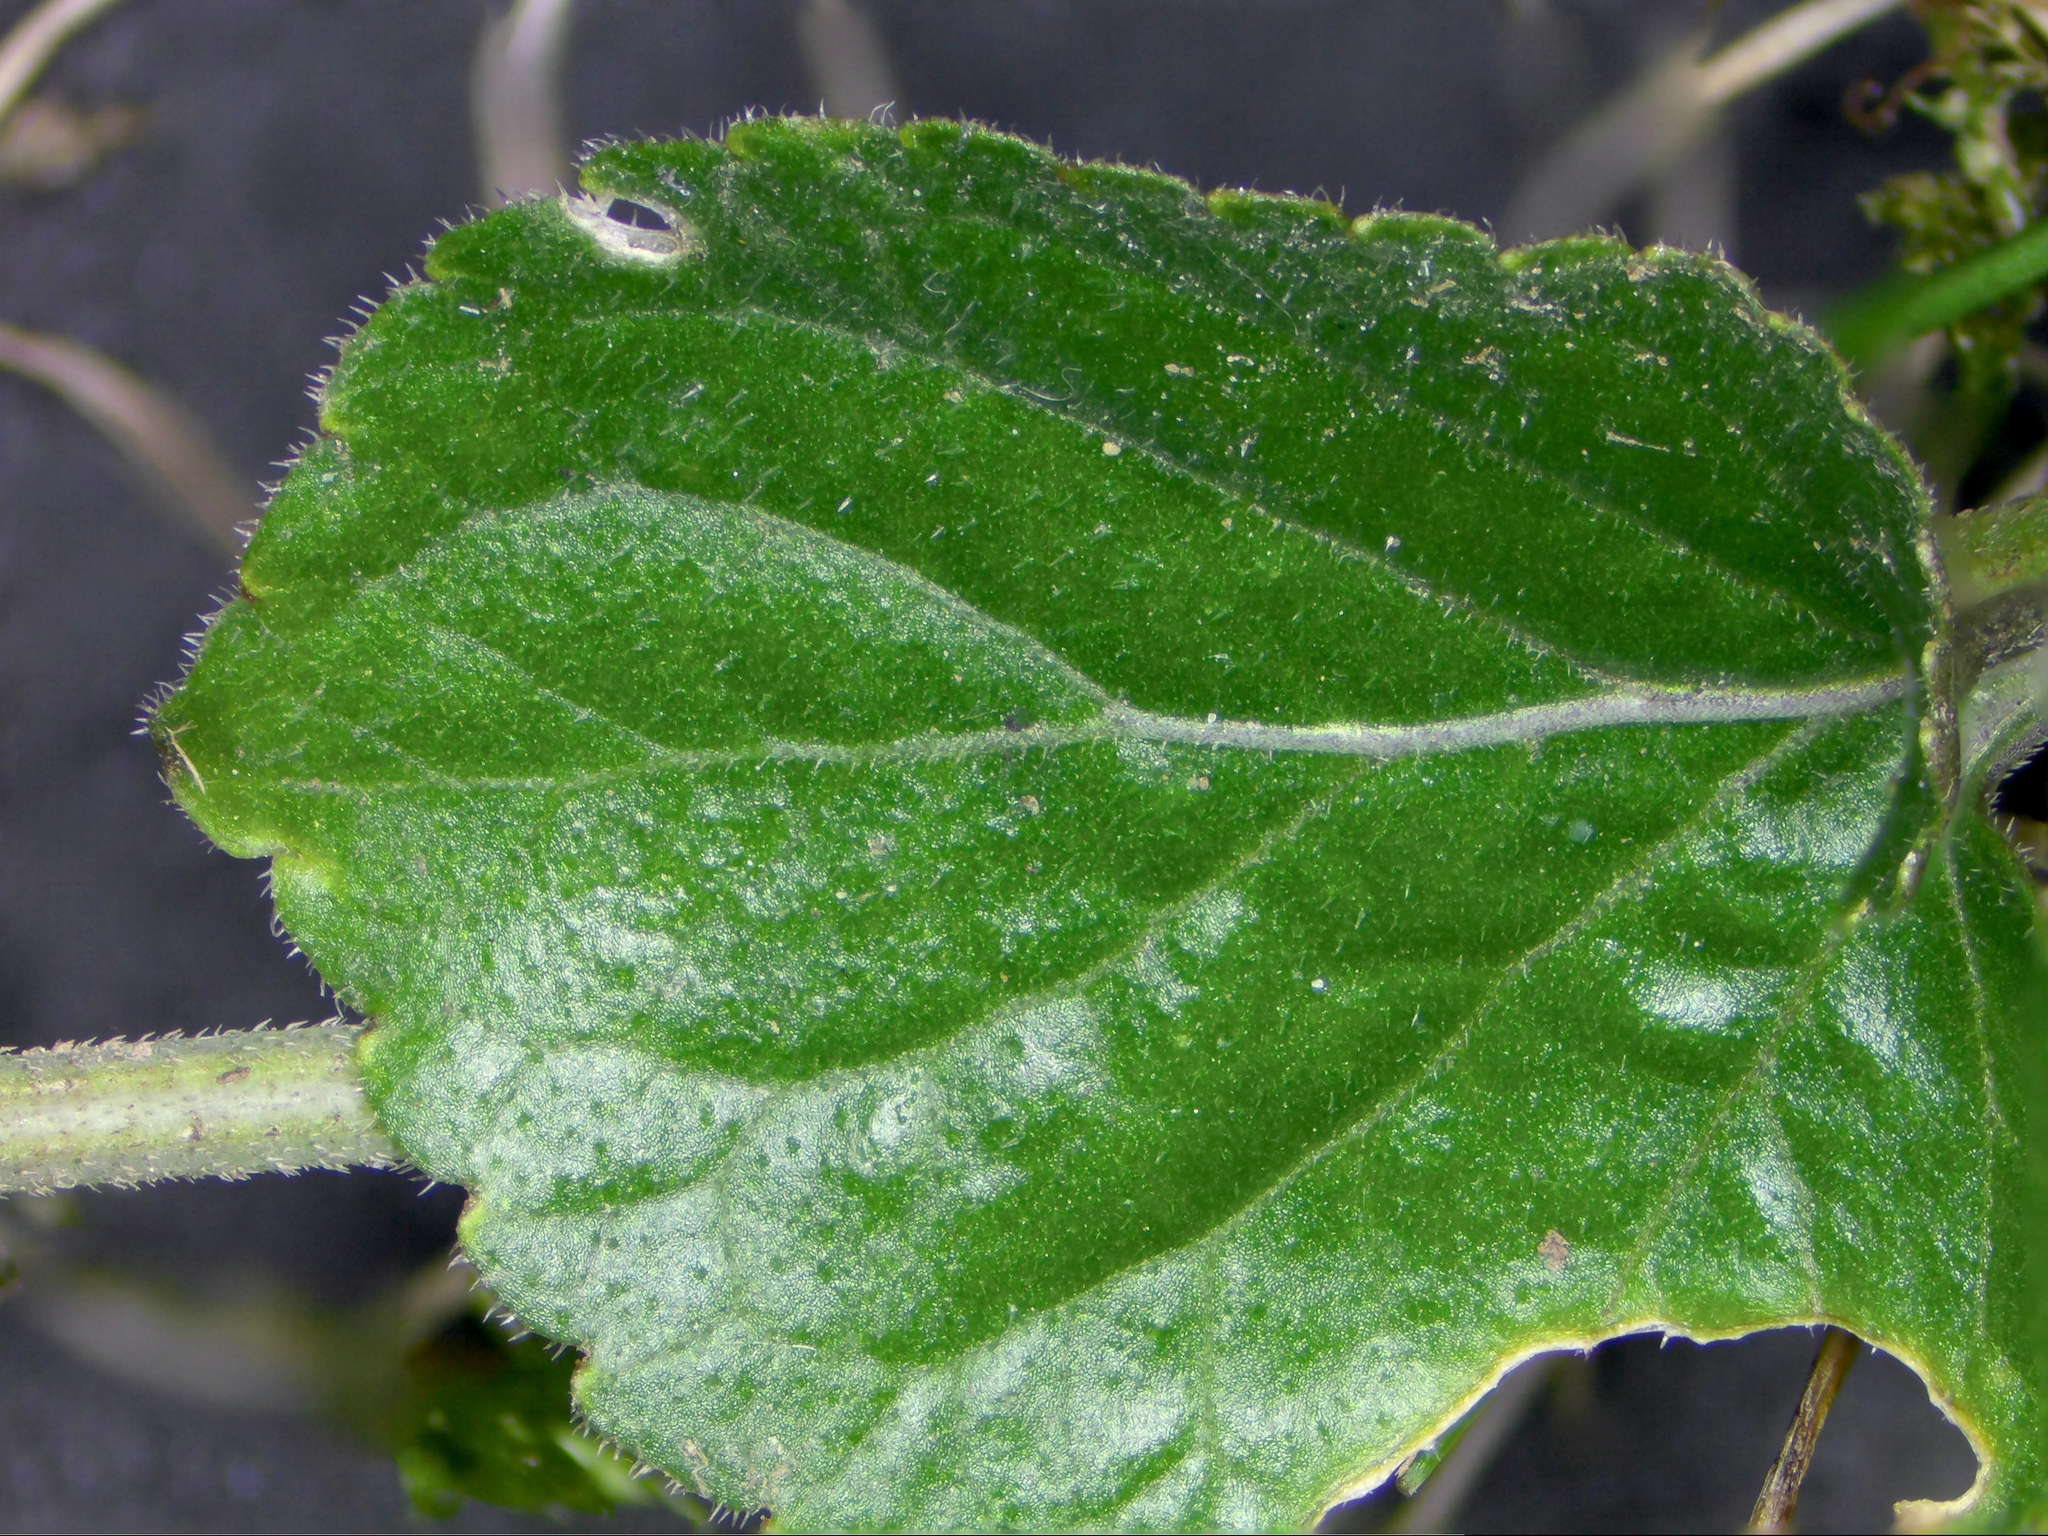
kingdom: Plantae
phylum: Tracheophyta
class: Magnoliopsida
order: Malpighiales
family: Violaceae
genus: Viola
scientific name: Viola odorata
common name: Sweet violet
